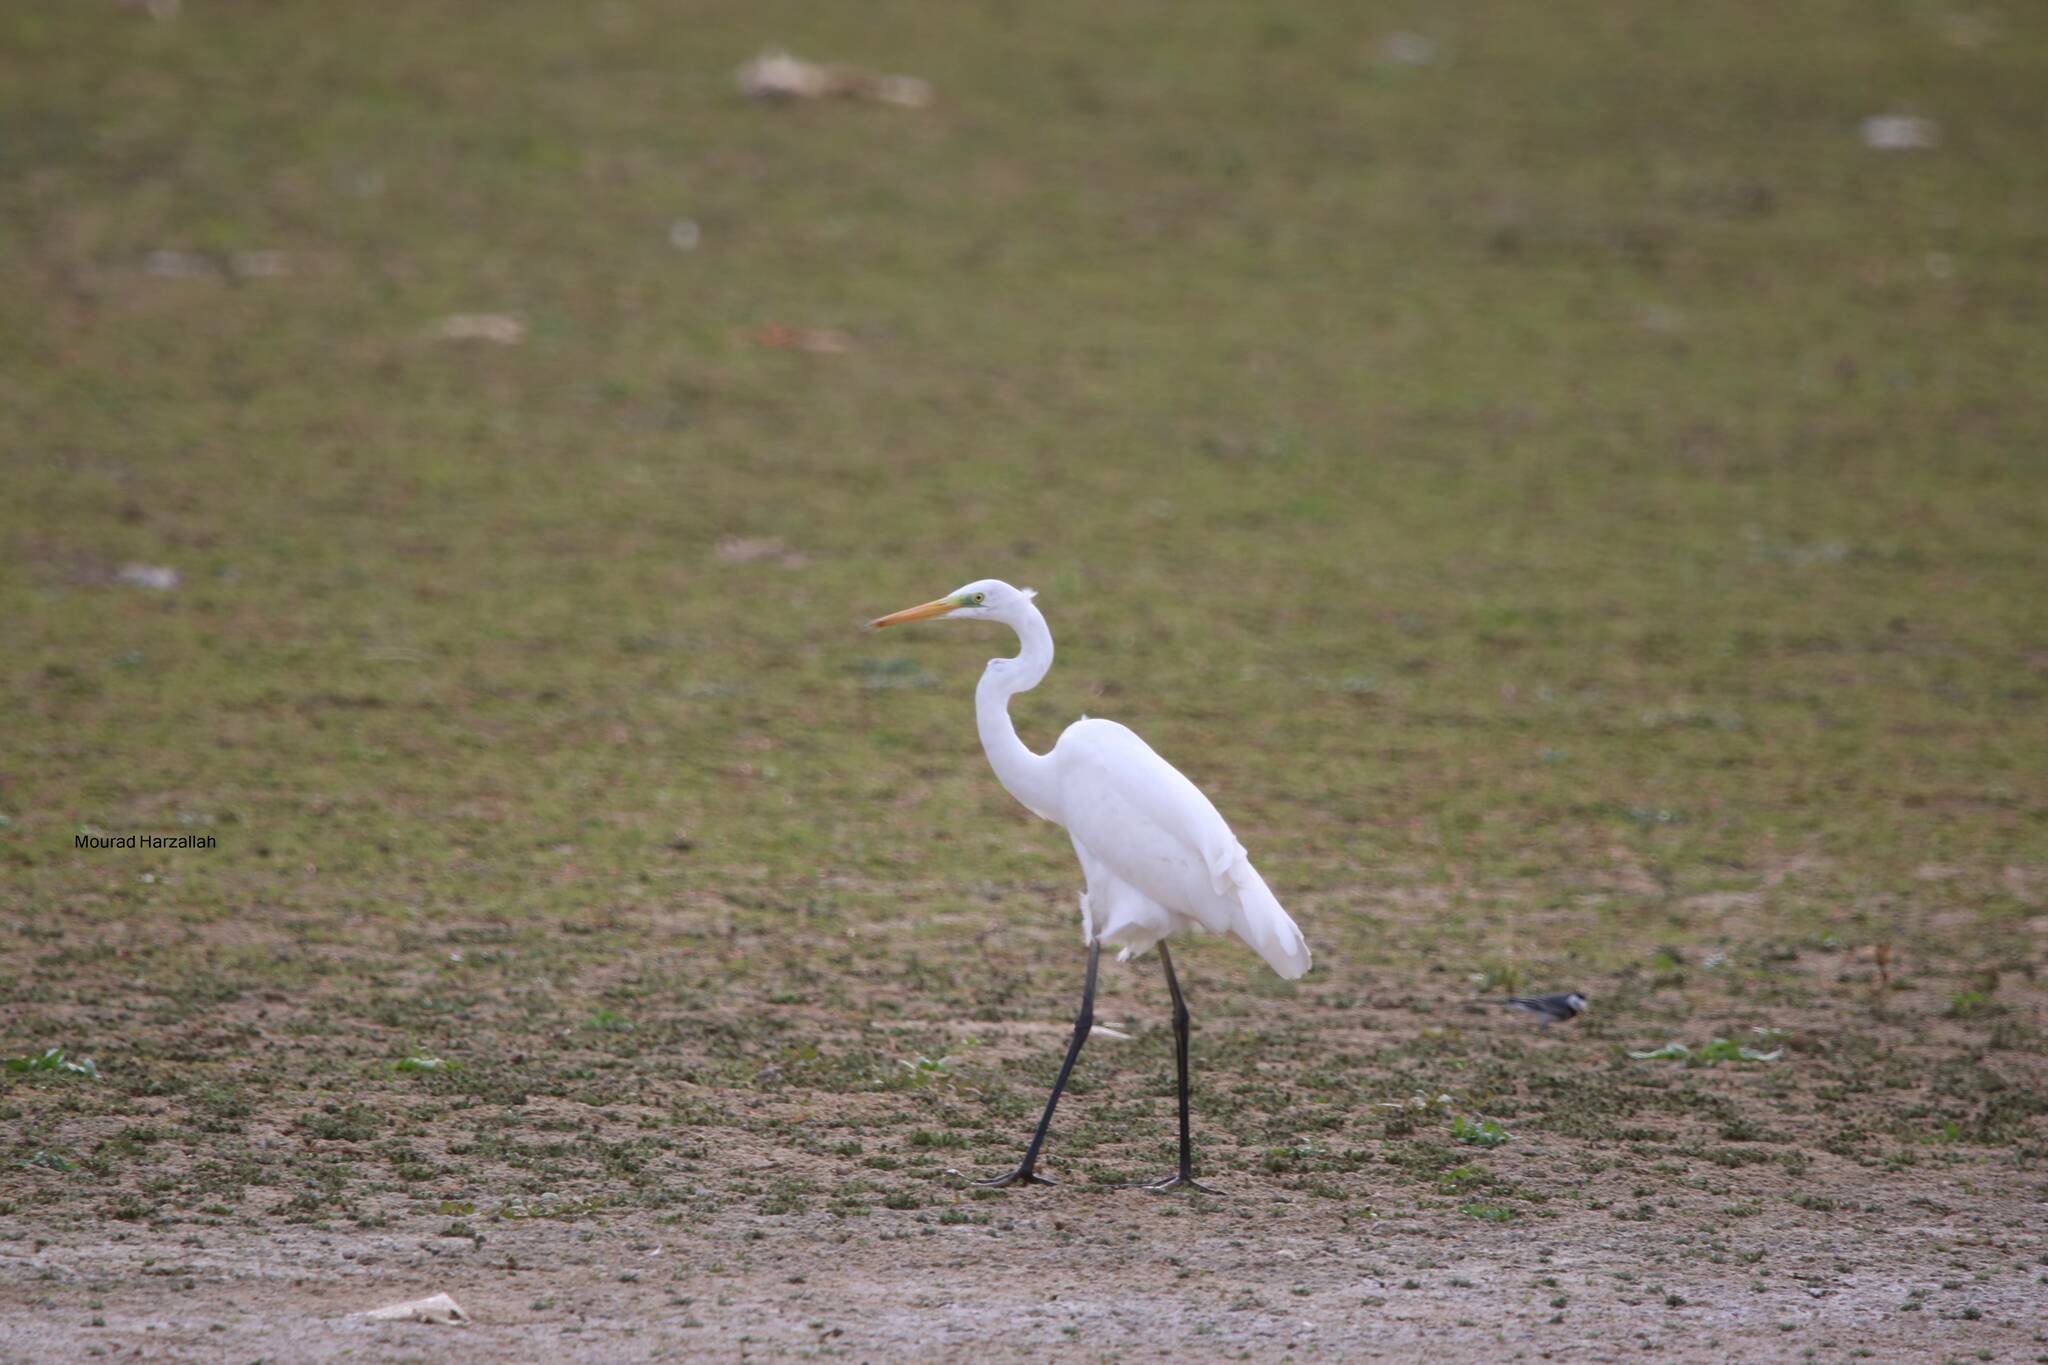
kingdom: Animalia
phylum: Chordata
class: Aves
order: Pelecaniformes
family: Ardeidae
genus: Ardea
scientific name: Ardea alba
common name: Great egret
